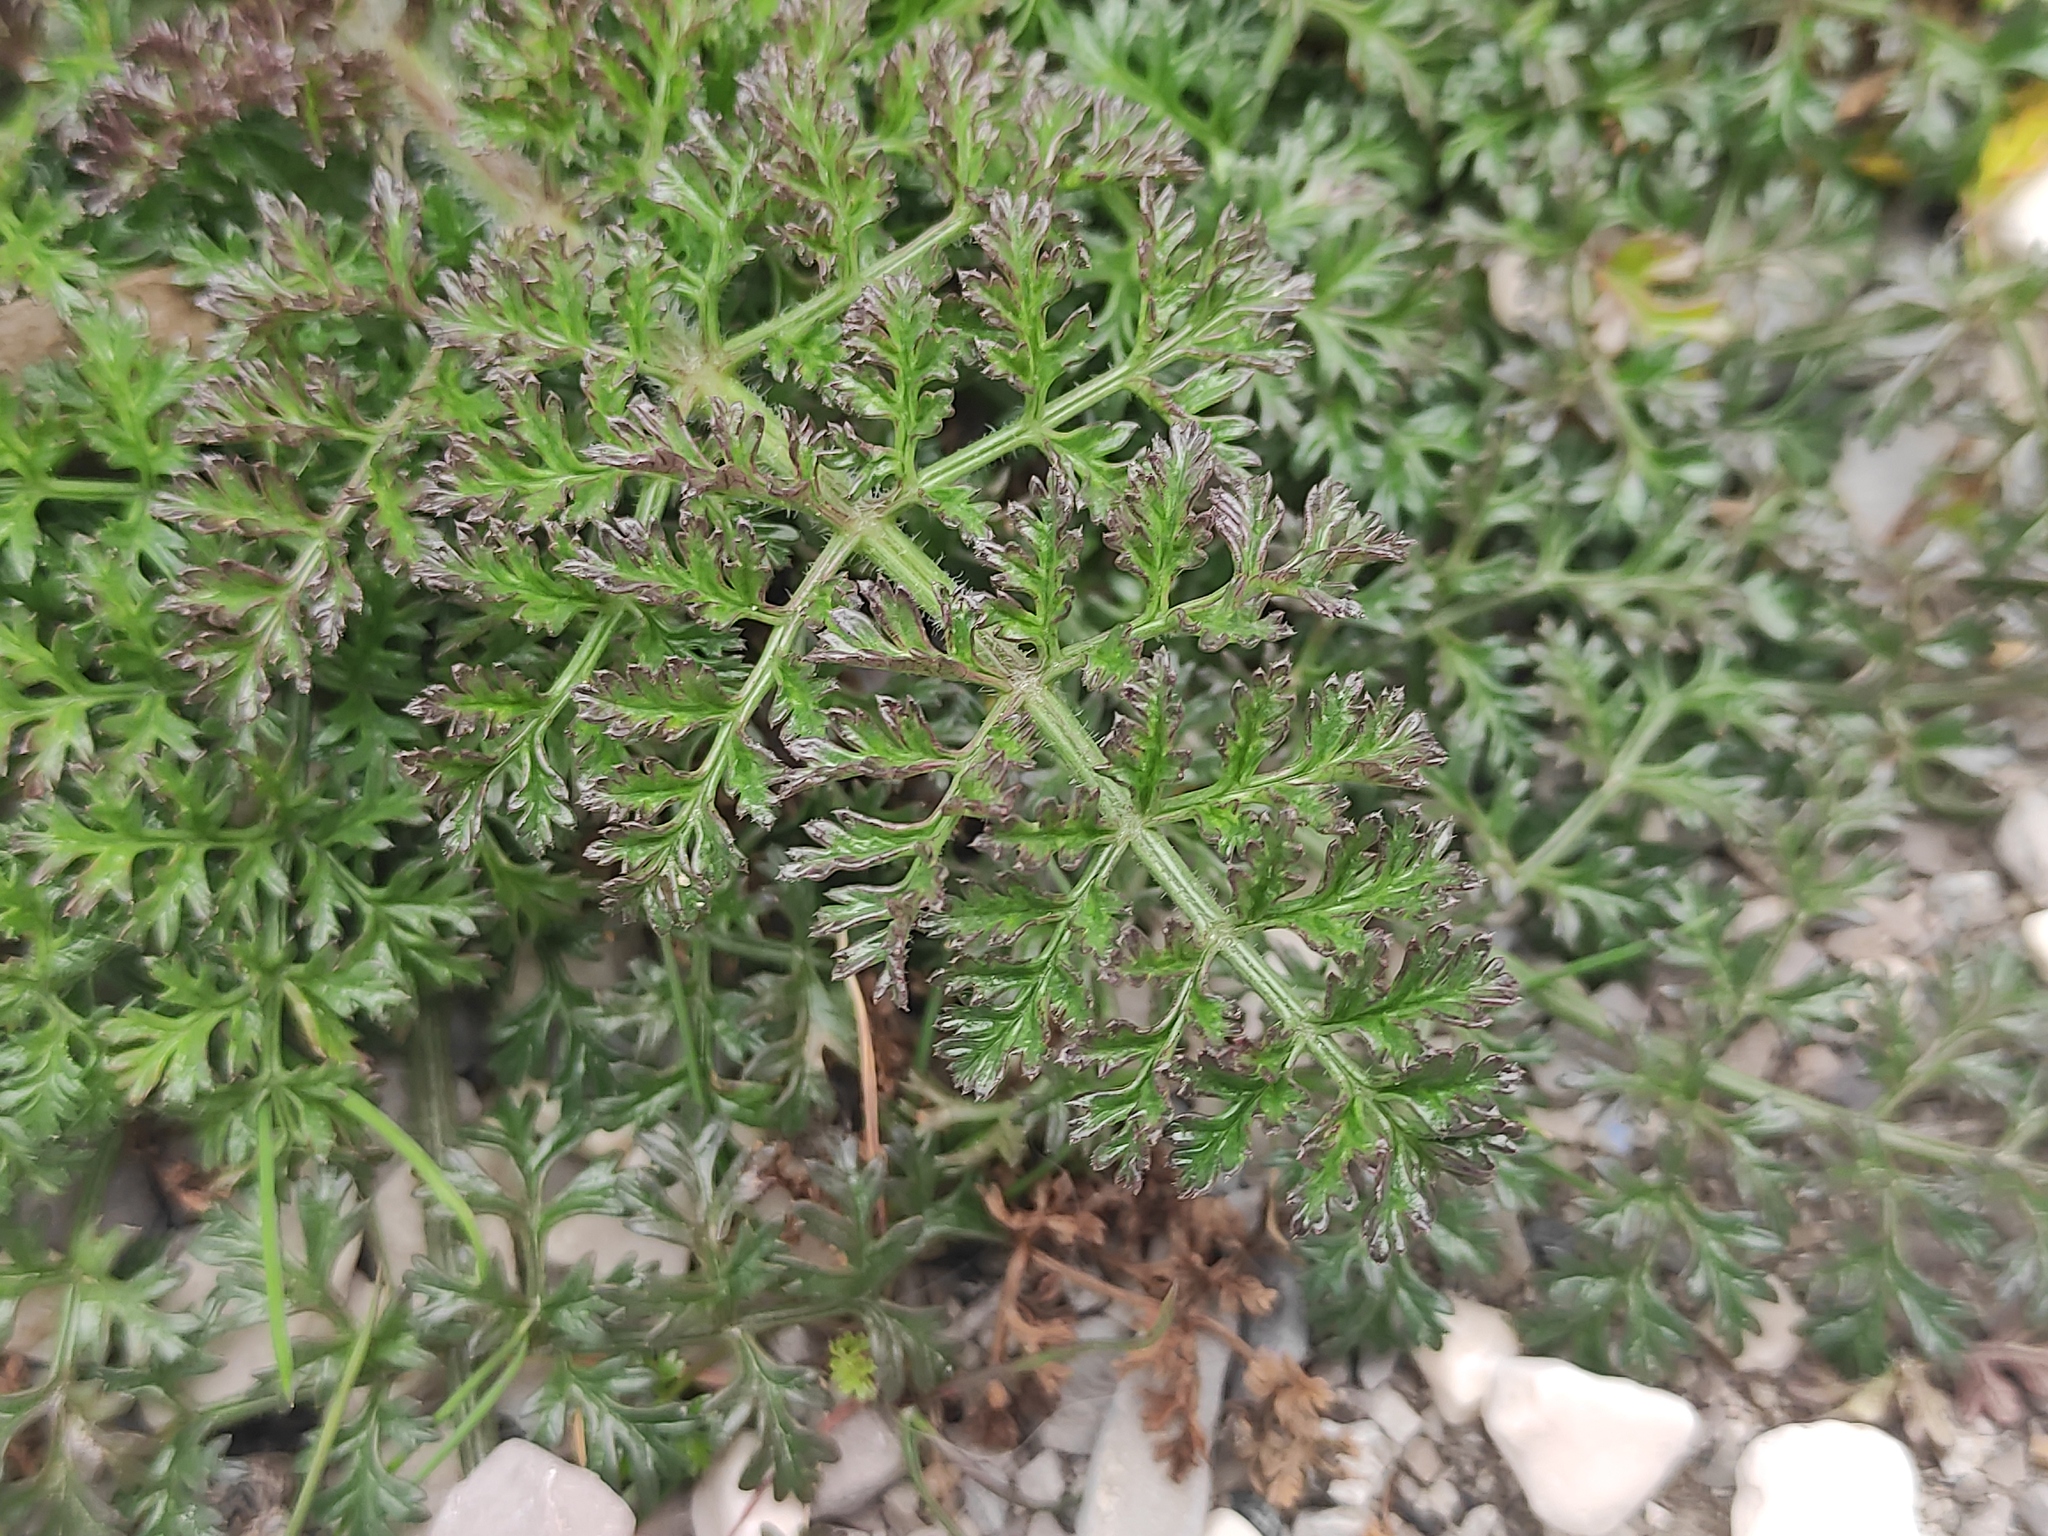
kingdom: Plantae
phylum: Tracheophyta
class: Magnoliopsida
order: Apiales
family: Apiaceae
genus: Daucus
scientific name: Daucus carota
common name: Wild carrot
